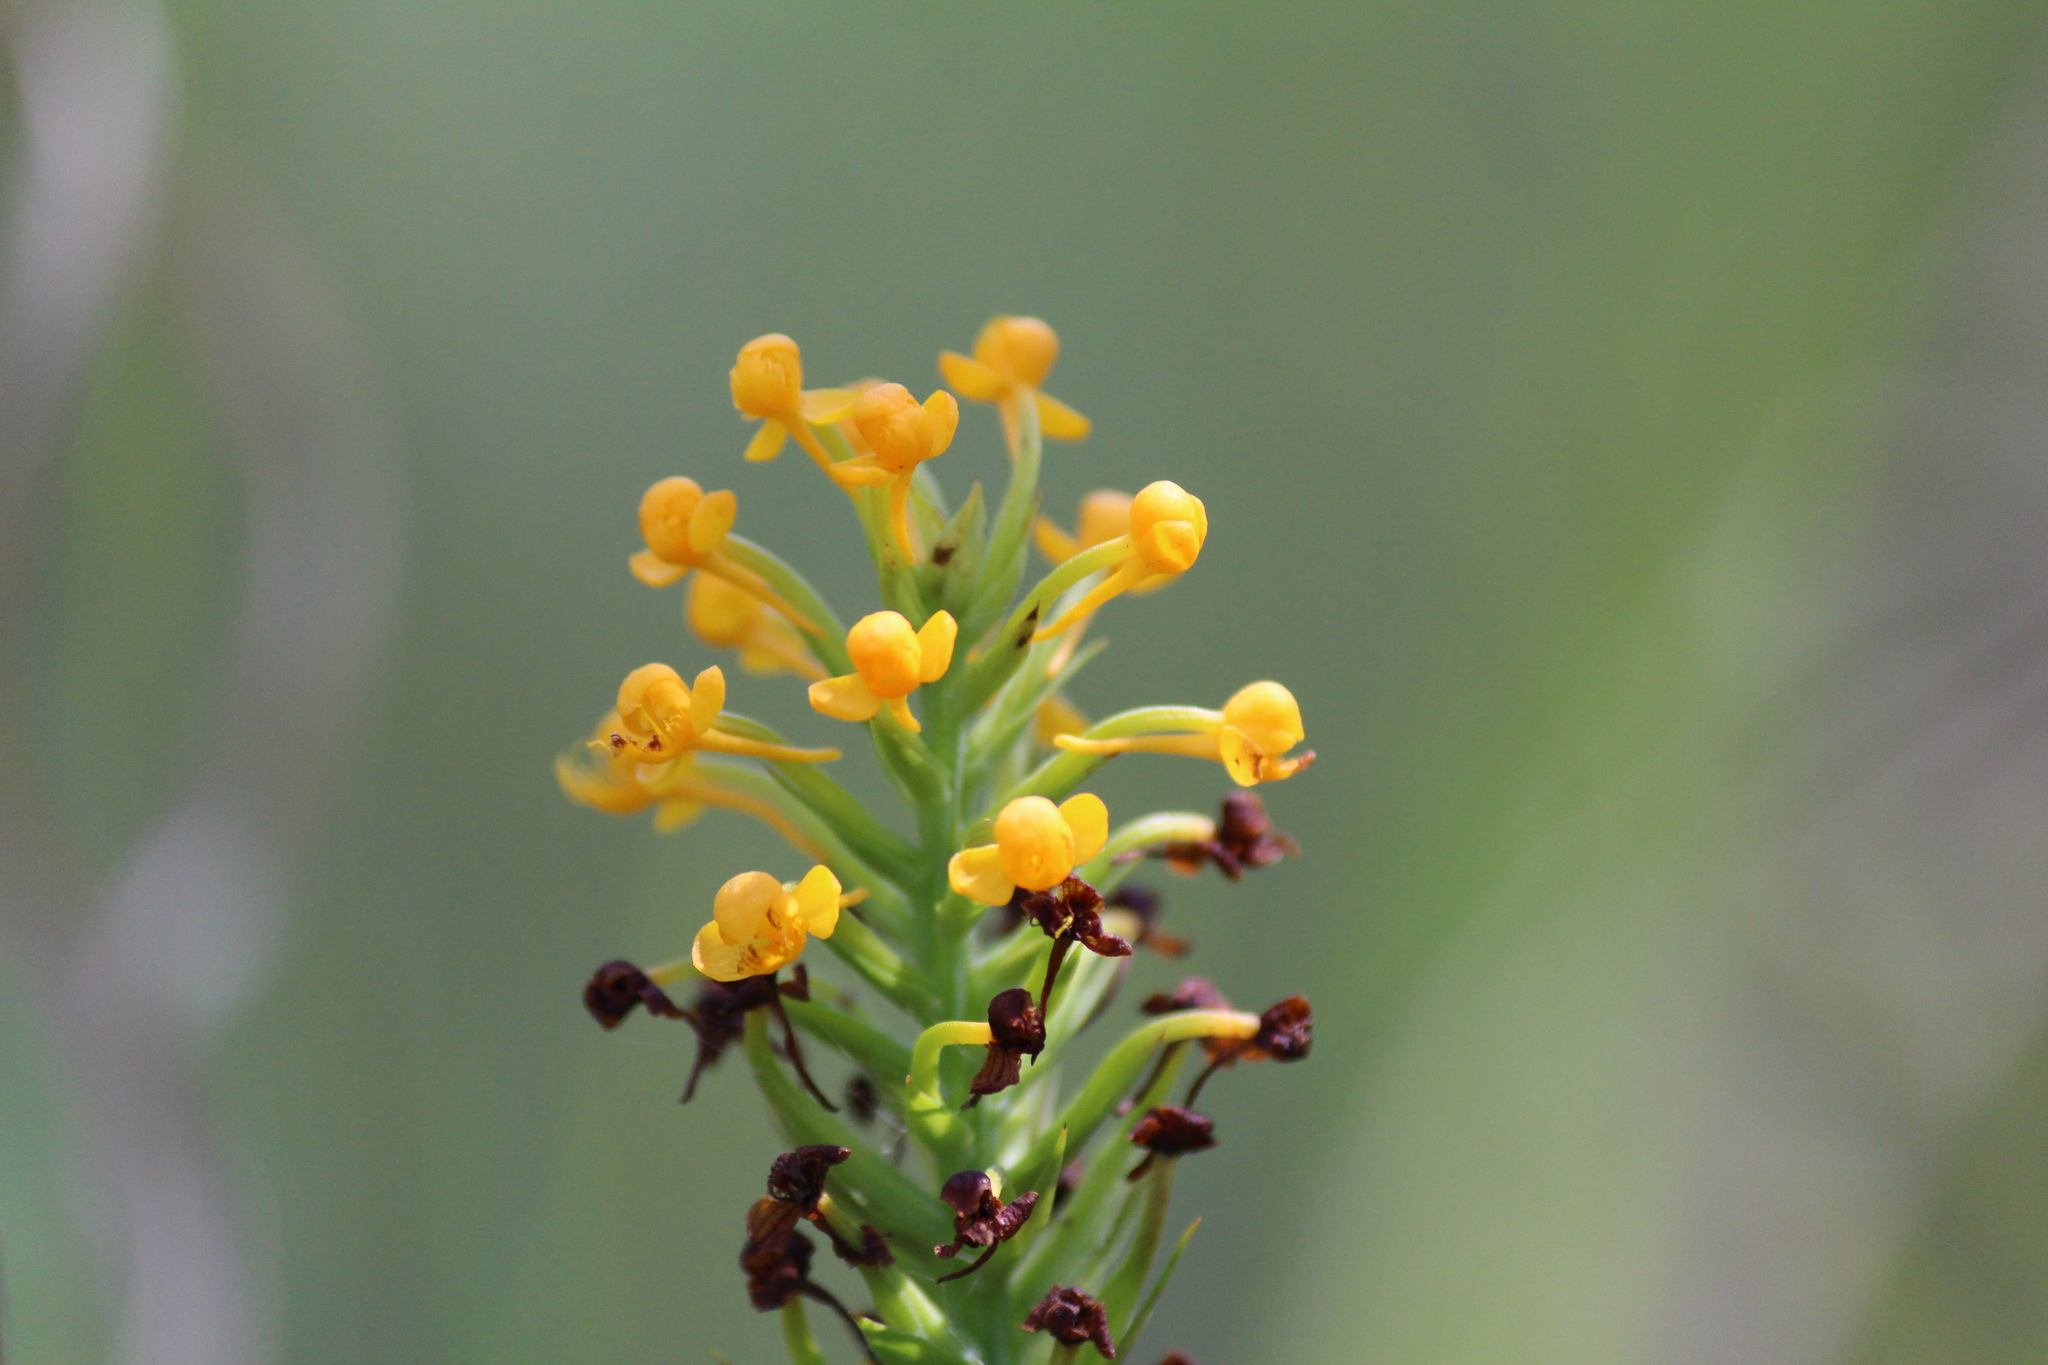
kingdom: Plantae
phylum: Tracheophyta
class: Liliopsida
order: Asparagales
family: Orchidaceae
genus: Platanthera
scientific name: Platanthera cristata
